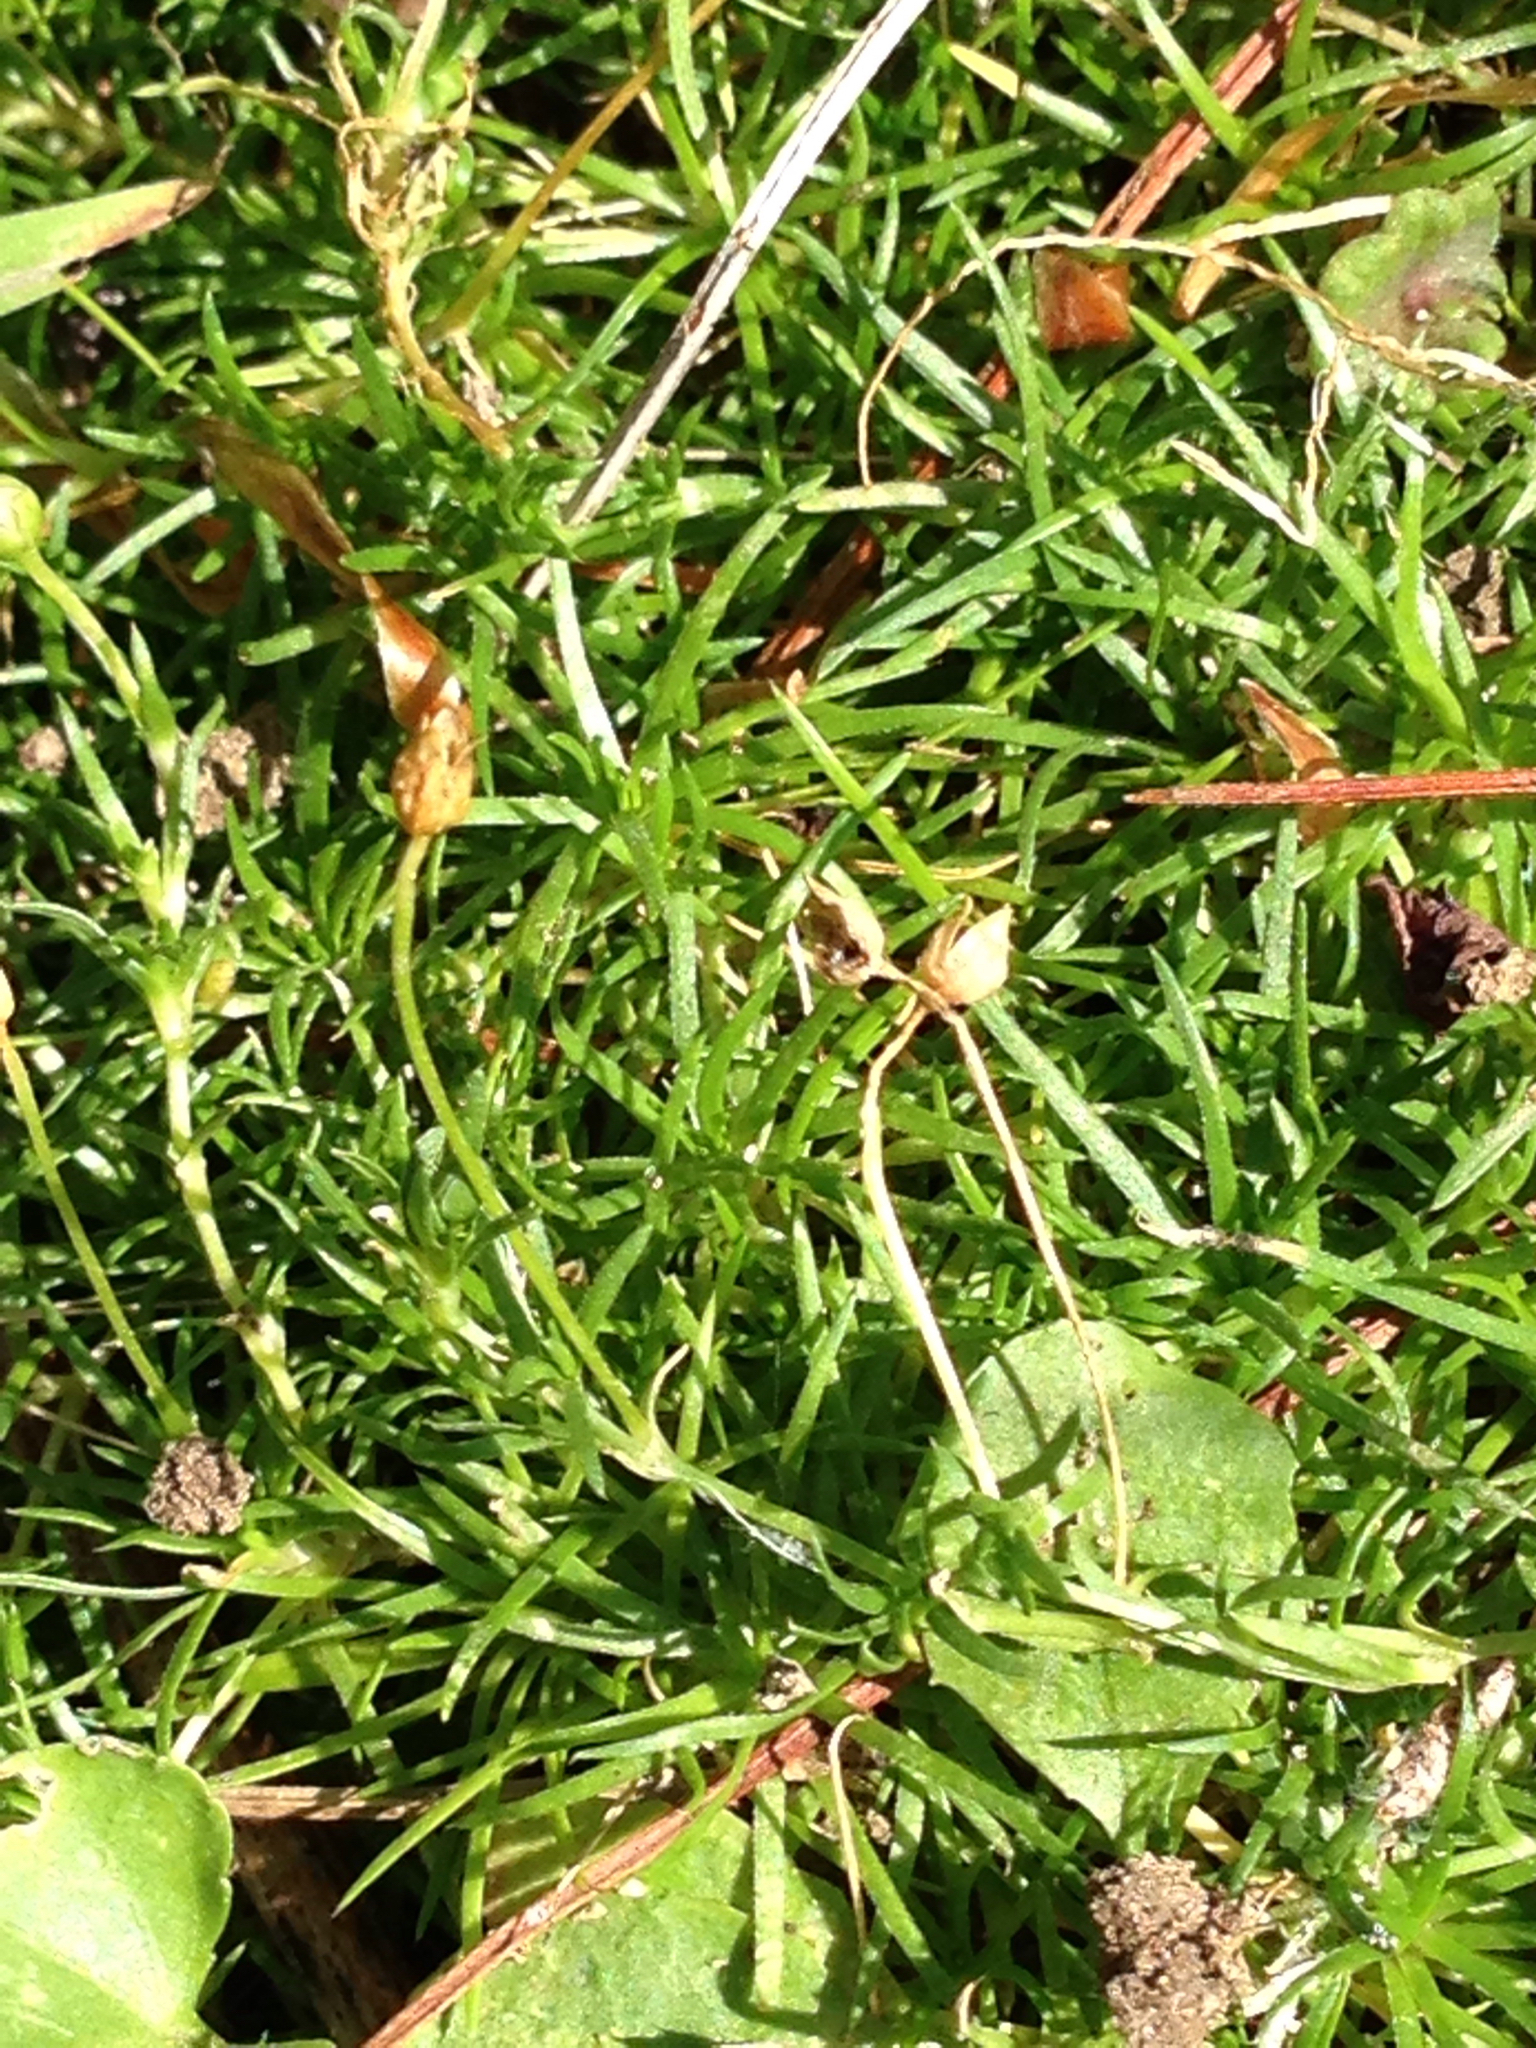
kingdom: Plantae
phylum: Tracheophyta
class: Magnoliopsida
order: Caryophyllales
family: Caryophyllaceae
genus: Sagina
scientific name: Sagina subulata
